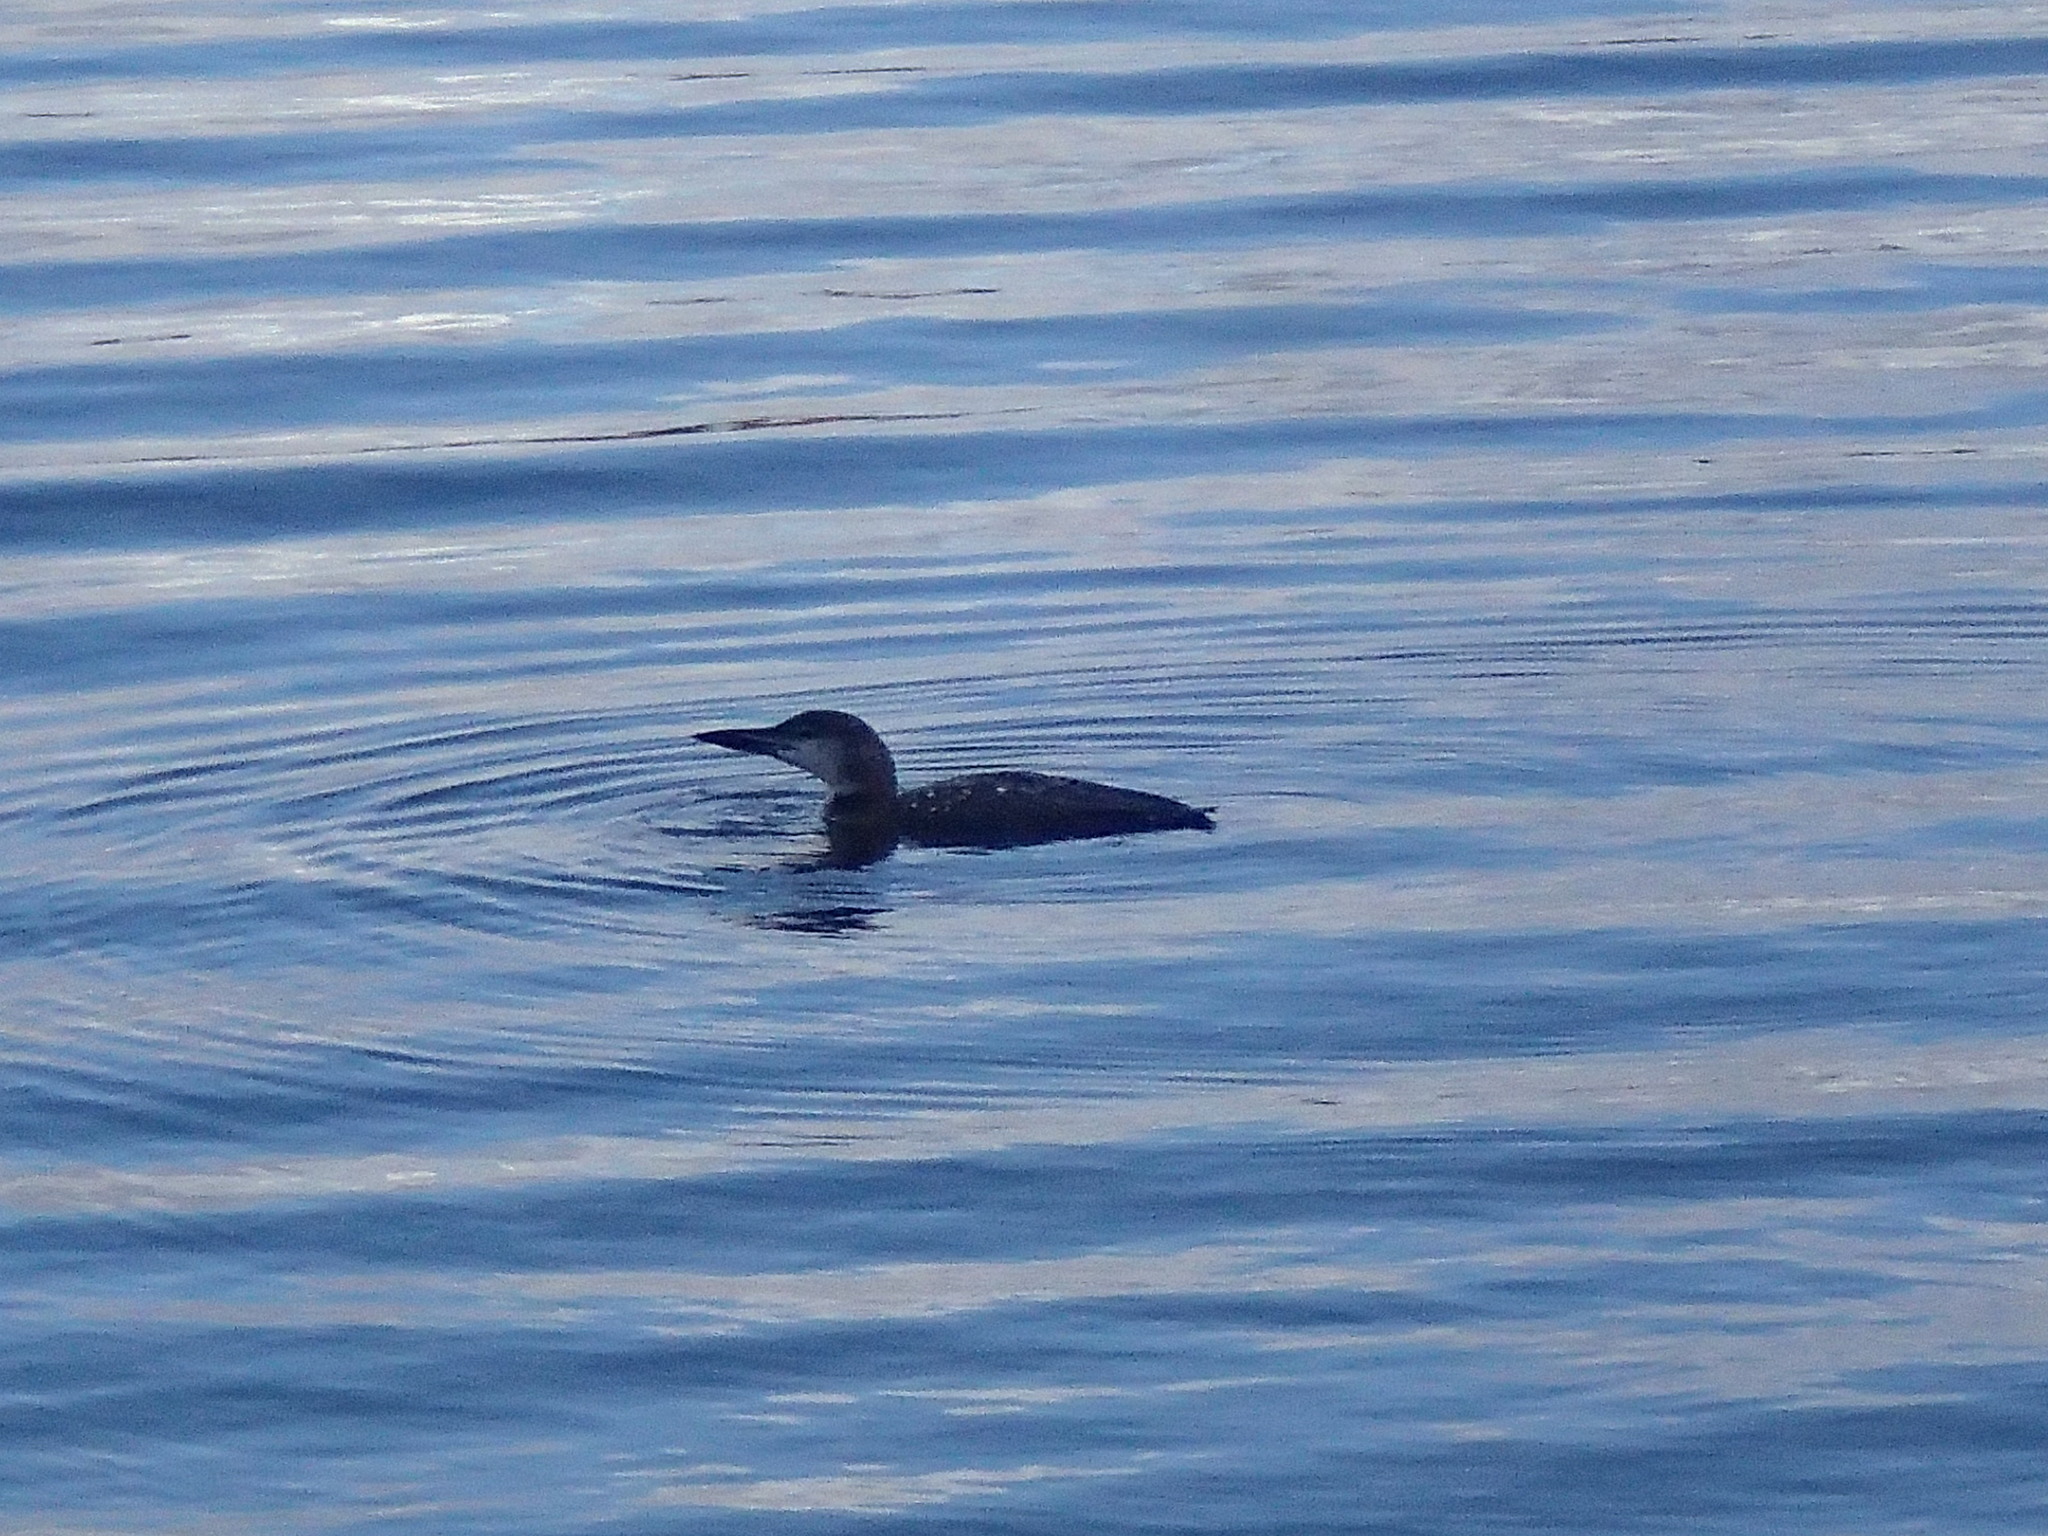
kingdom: Animalia
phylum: Chordata
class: Aves
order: Gaviiformes
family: Gaviidae
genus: Gavia
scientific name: Gavia immer
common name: Common loon
